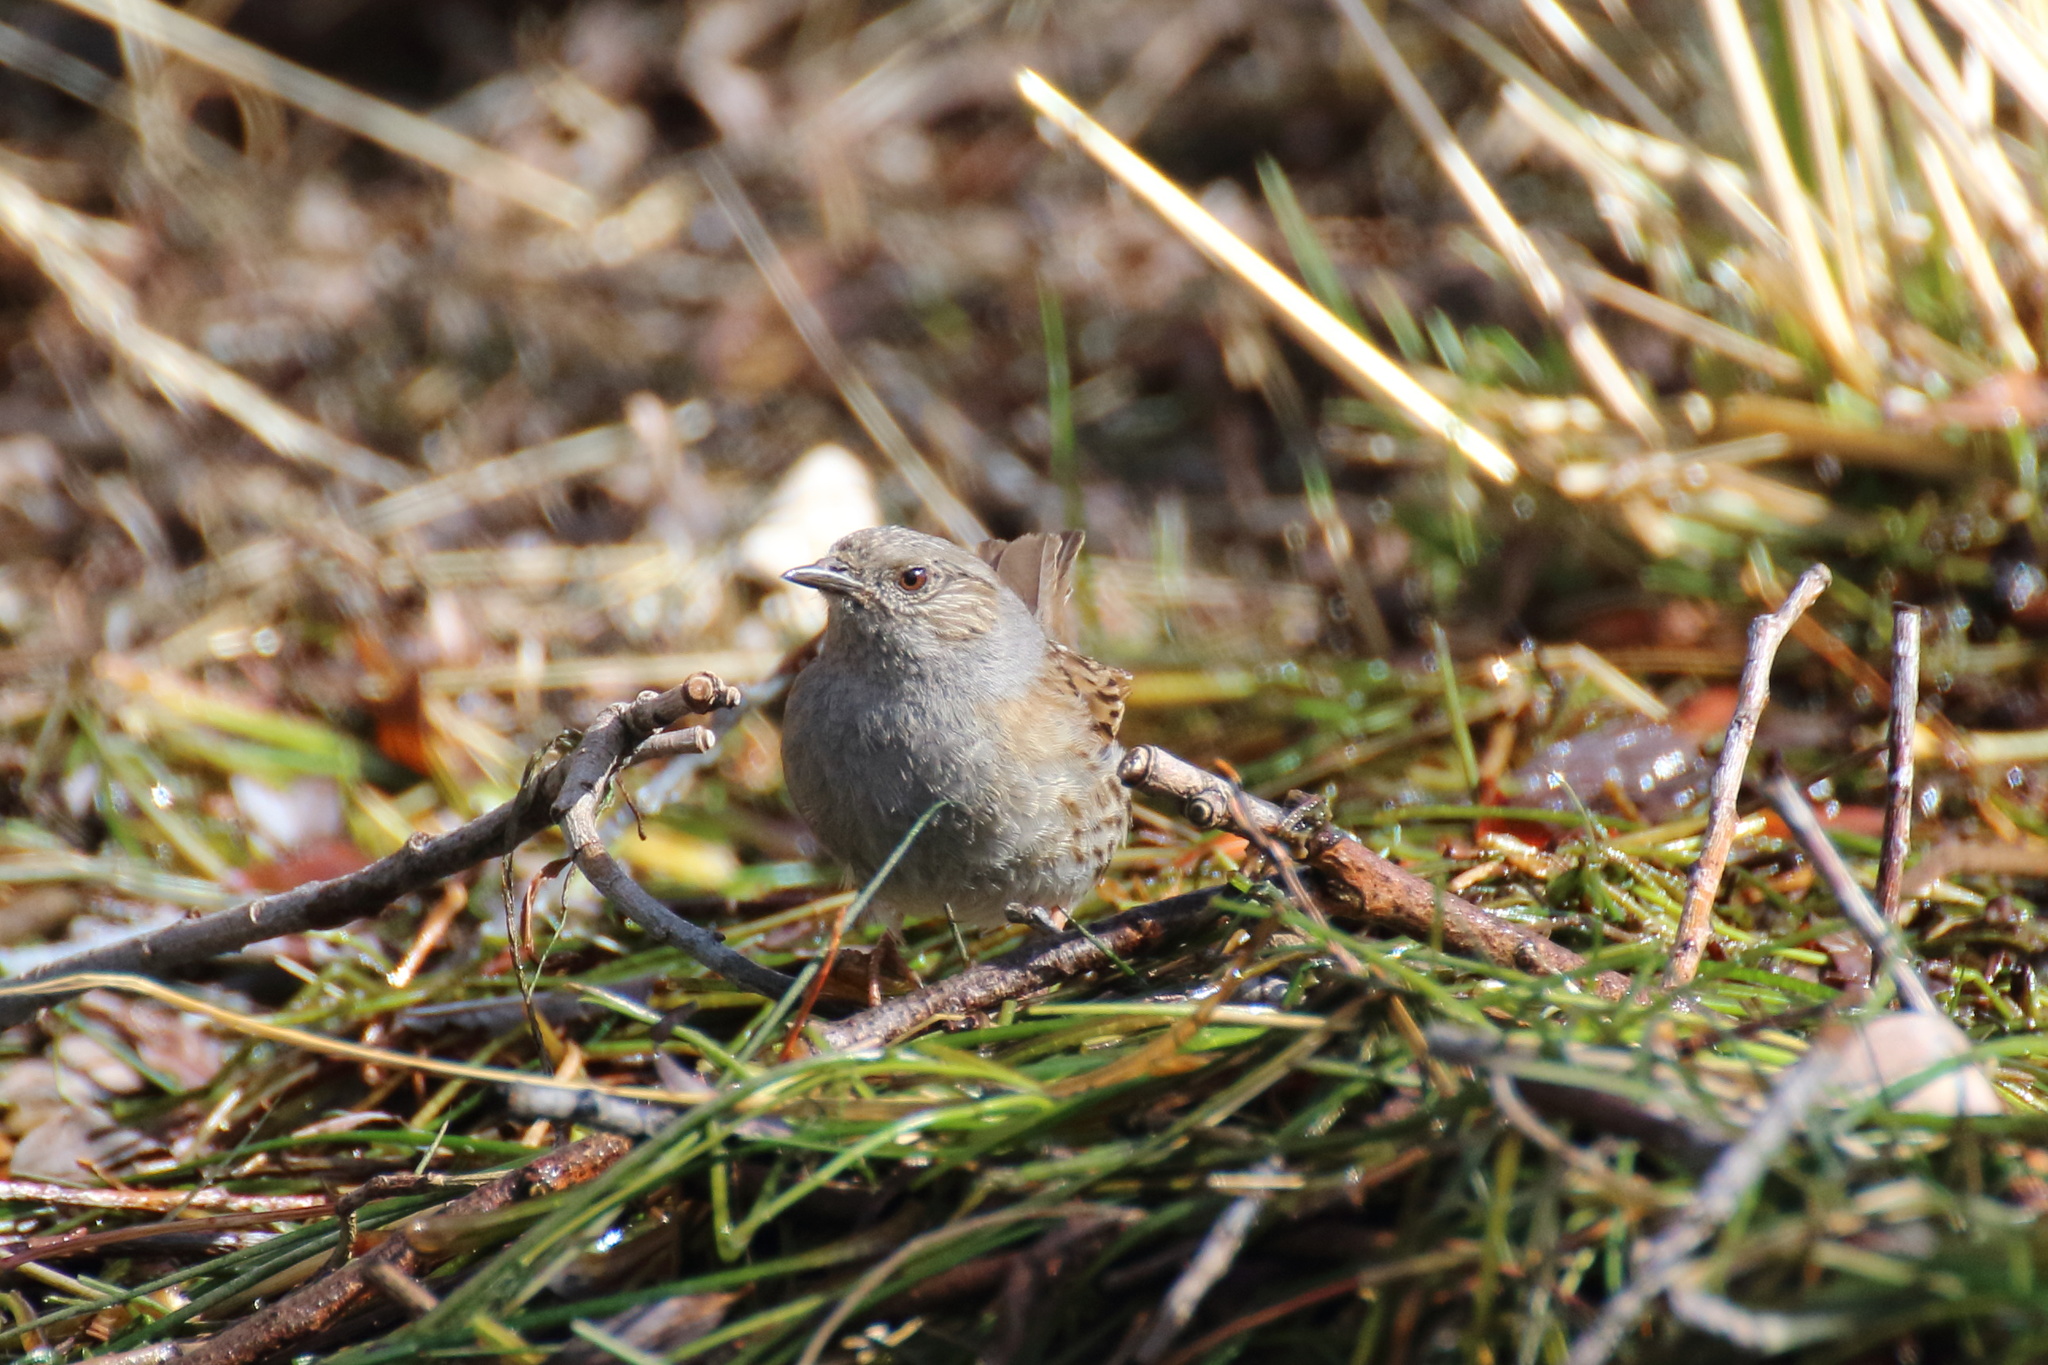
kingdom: Animalia
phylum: Chordata
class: Aves
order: Passeriformes
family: Prunellidae
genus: Prunella
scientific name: Prunella modularis
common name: Dunnock
